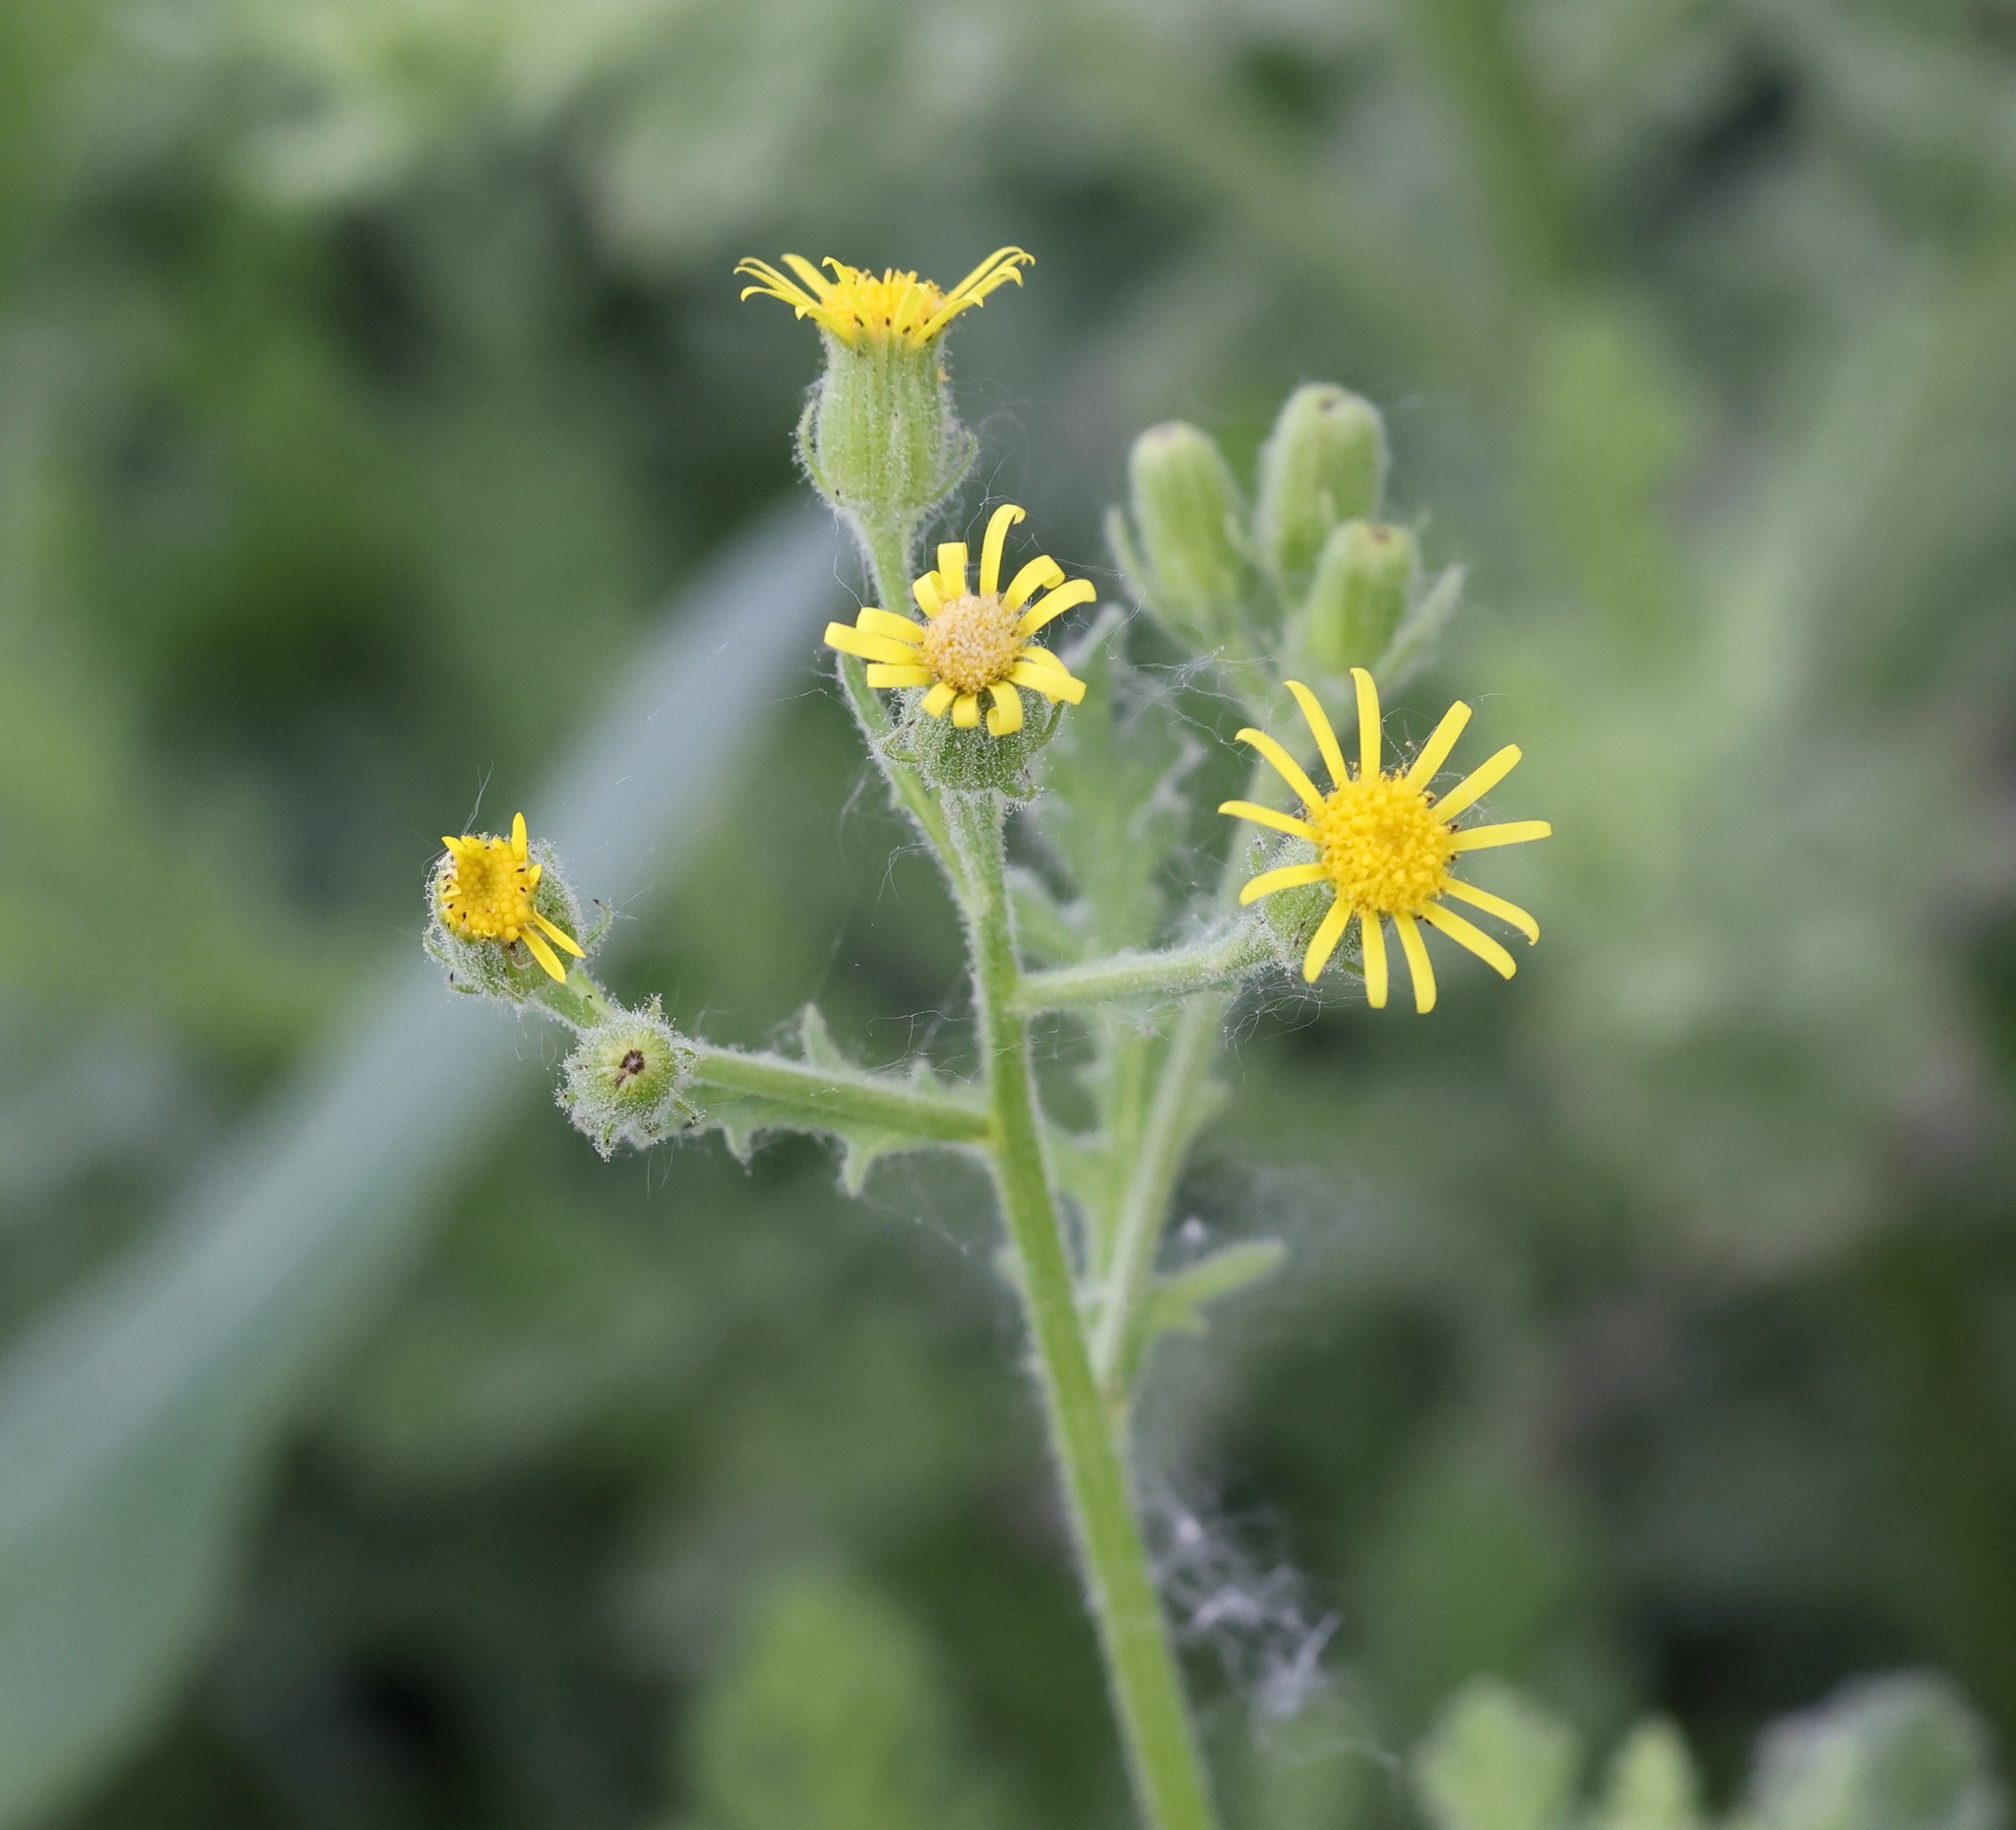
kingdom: Plantae
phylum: Tracheophyta
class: Magnoliopsida
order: Asterales
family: Asteraceae
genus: Senecio
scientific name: Senecio viscosus
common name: Sticky groundsel
